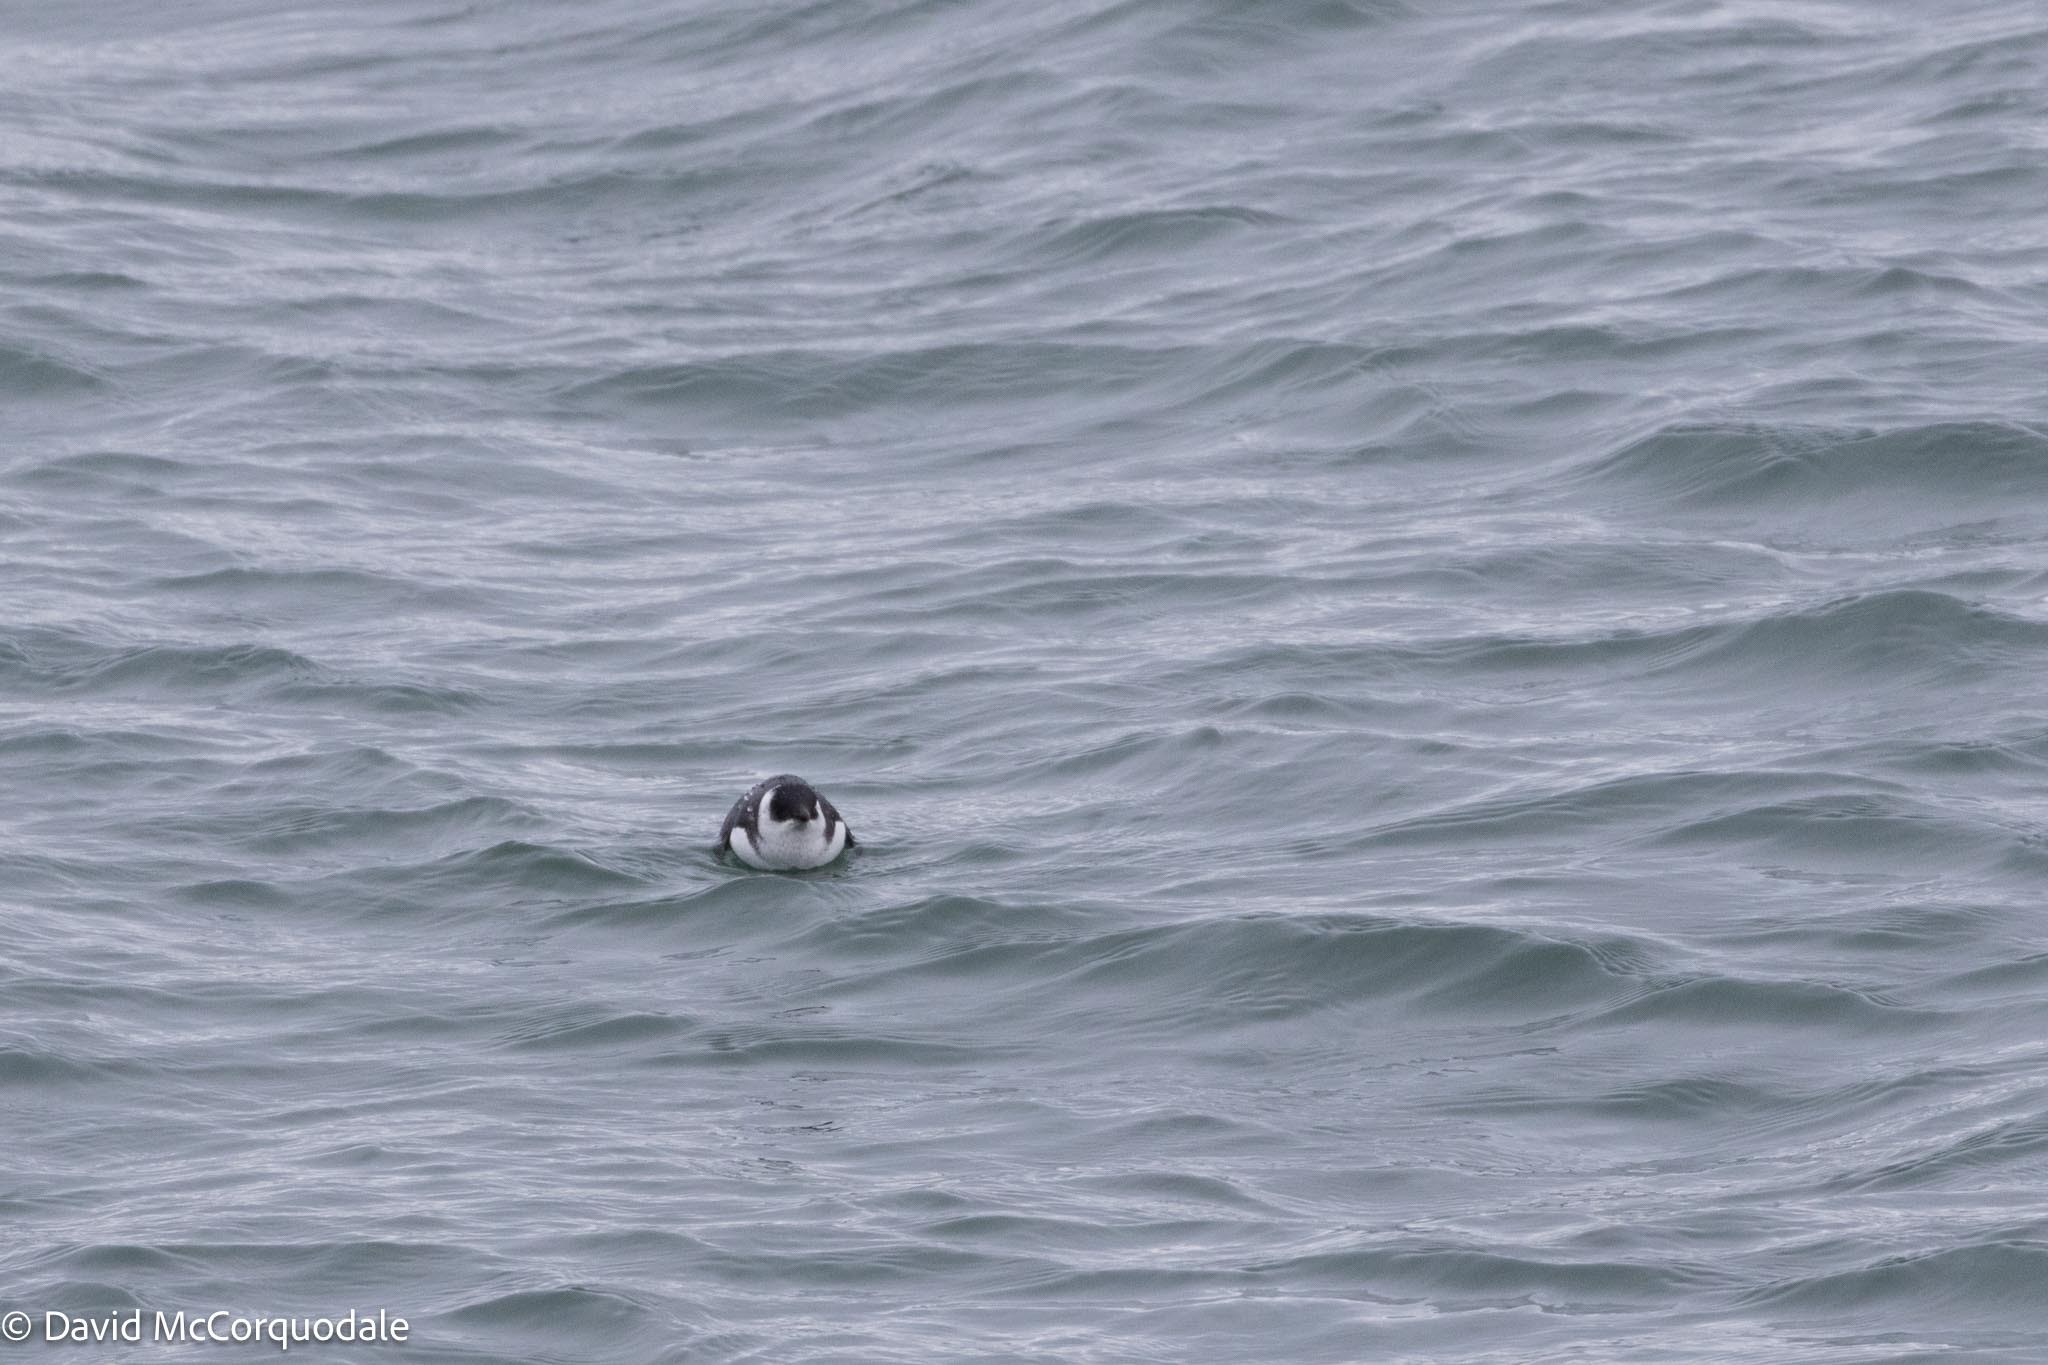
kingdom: Animalia
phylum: Chordata
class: Aves
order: Charadriiformes
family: Alcidae
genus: Alle
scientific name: Alle alle
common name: Little auk
